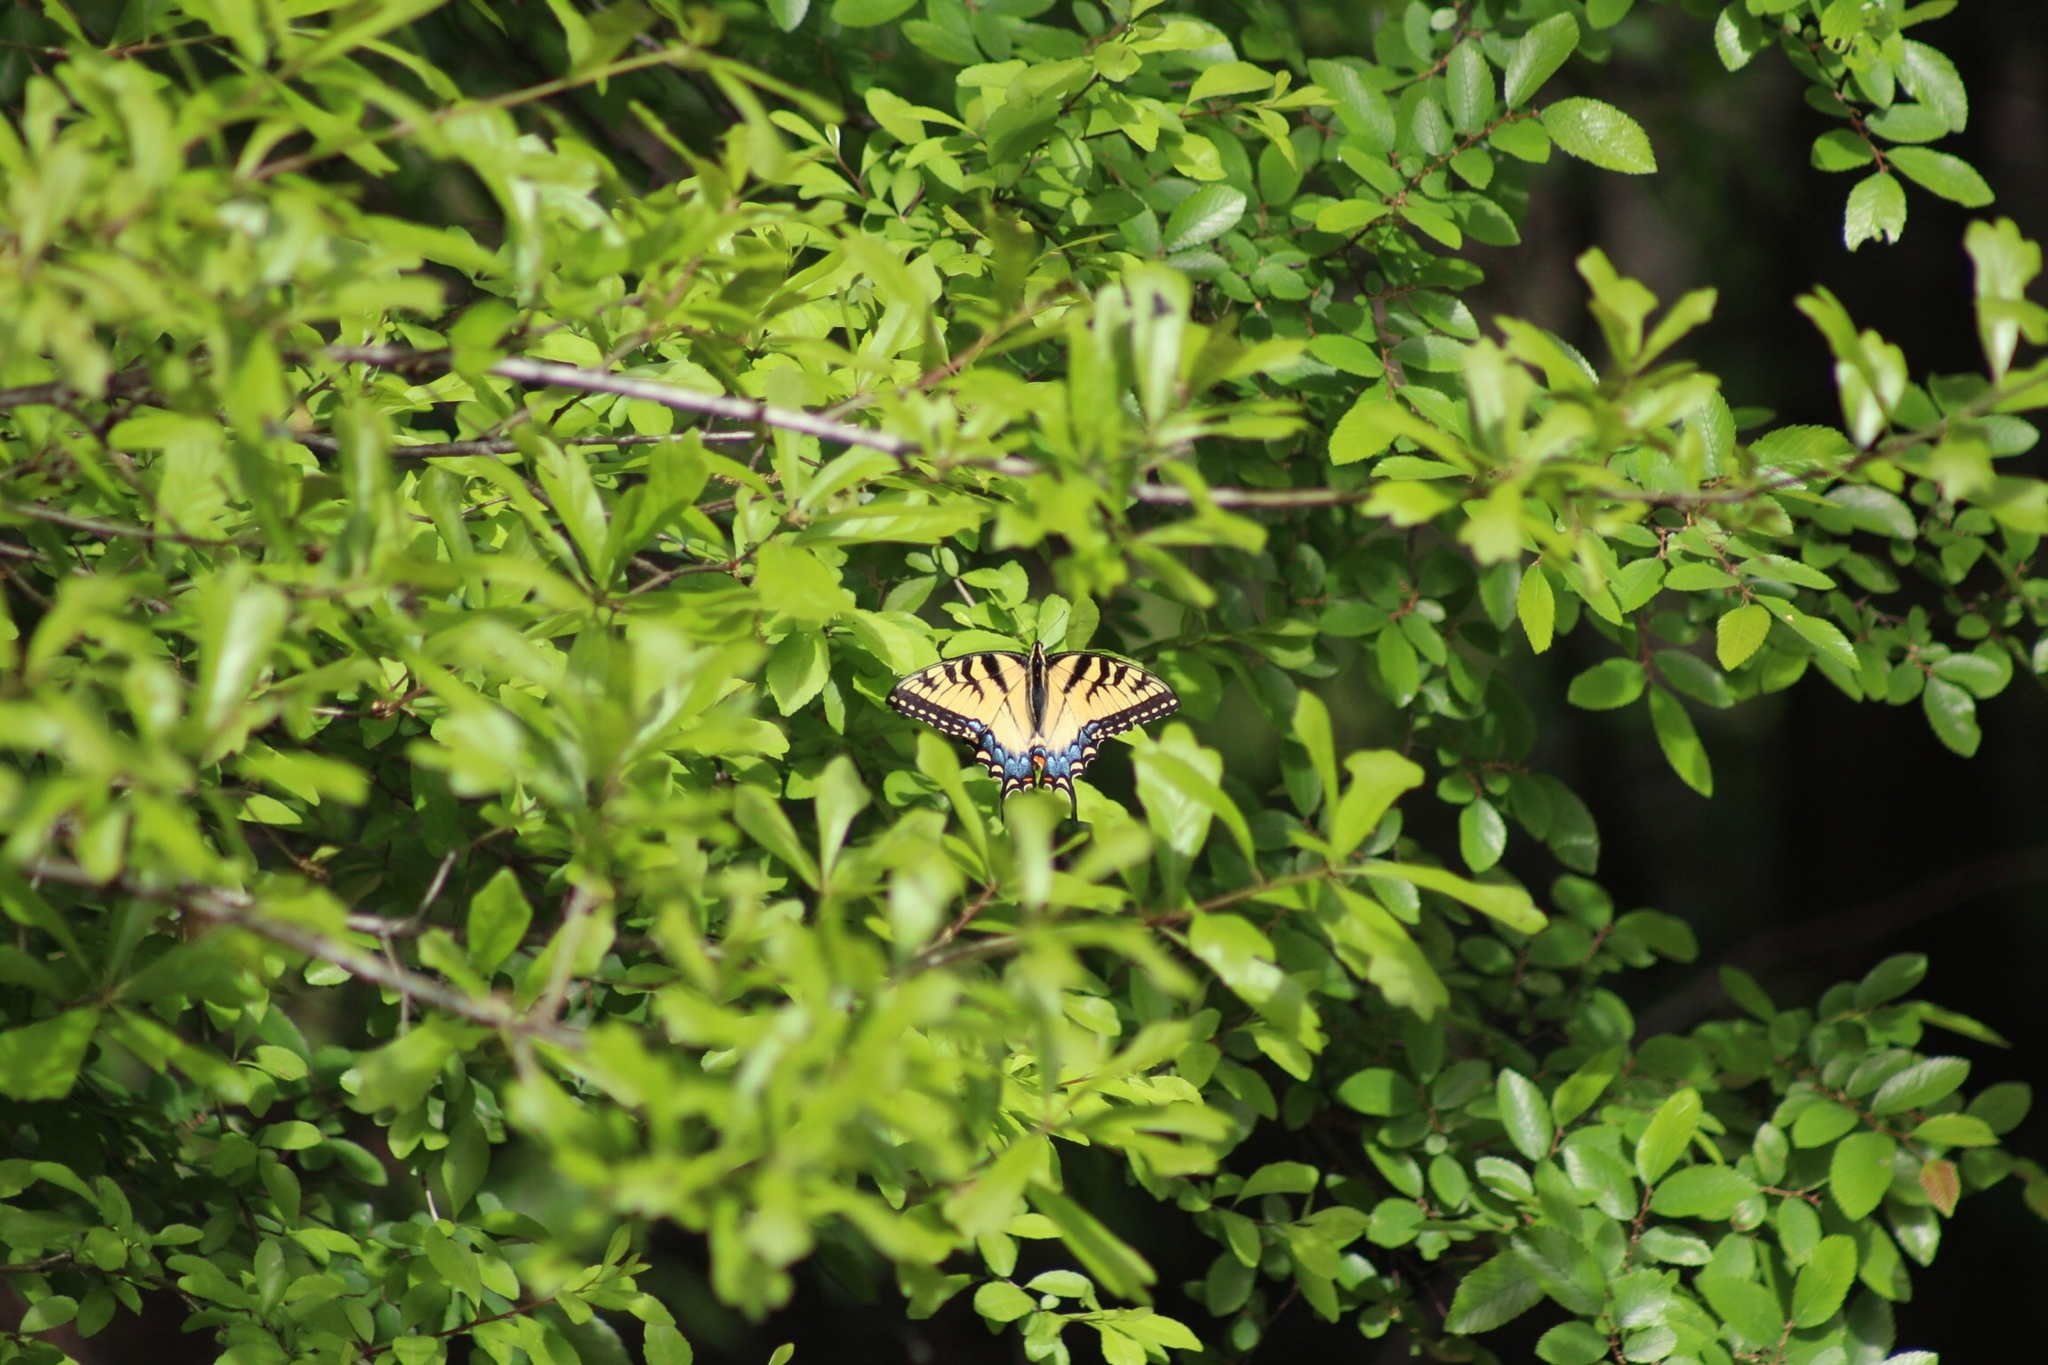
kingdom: Animalia
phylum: Arthropoda
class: Insecta
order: Lepidoptera
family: Papilionidae
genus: Papilio
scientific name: Papilio glaucus
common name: Tiger swallowtail
